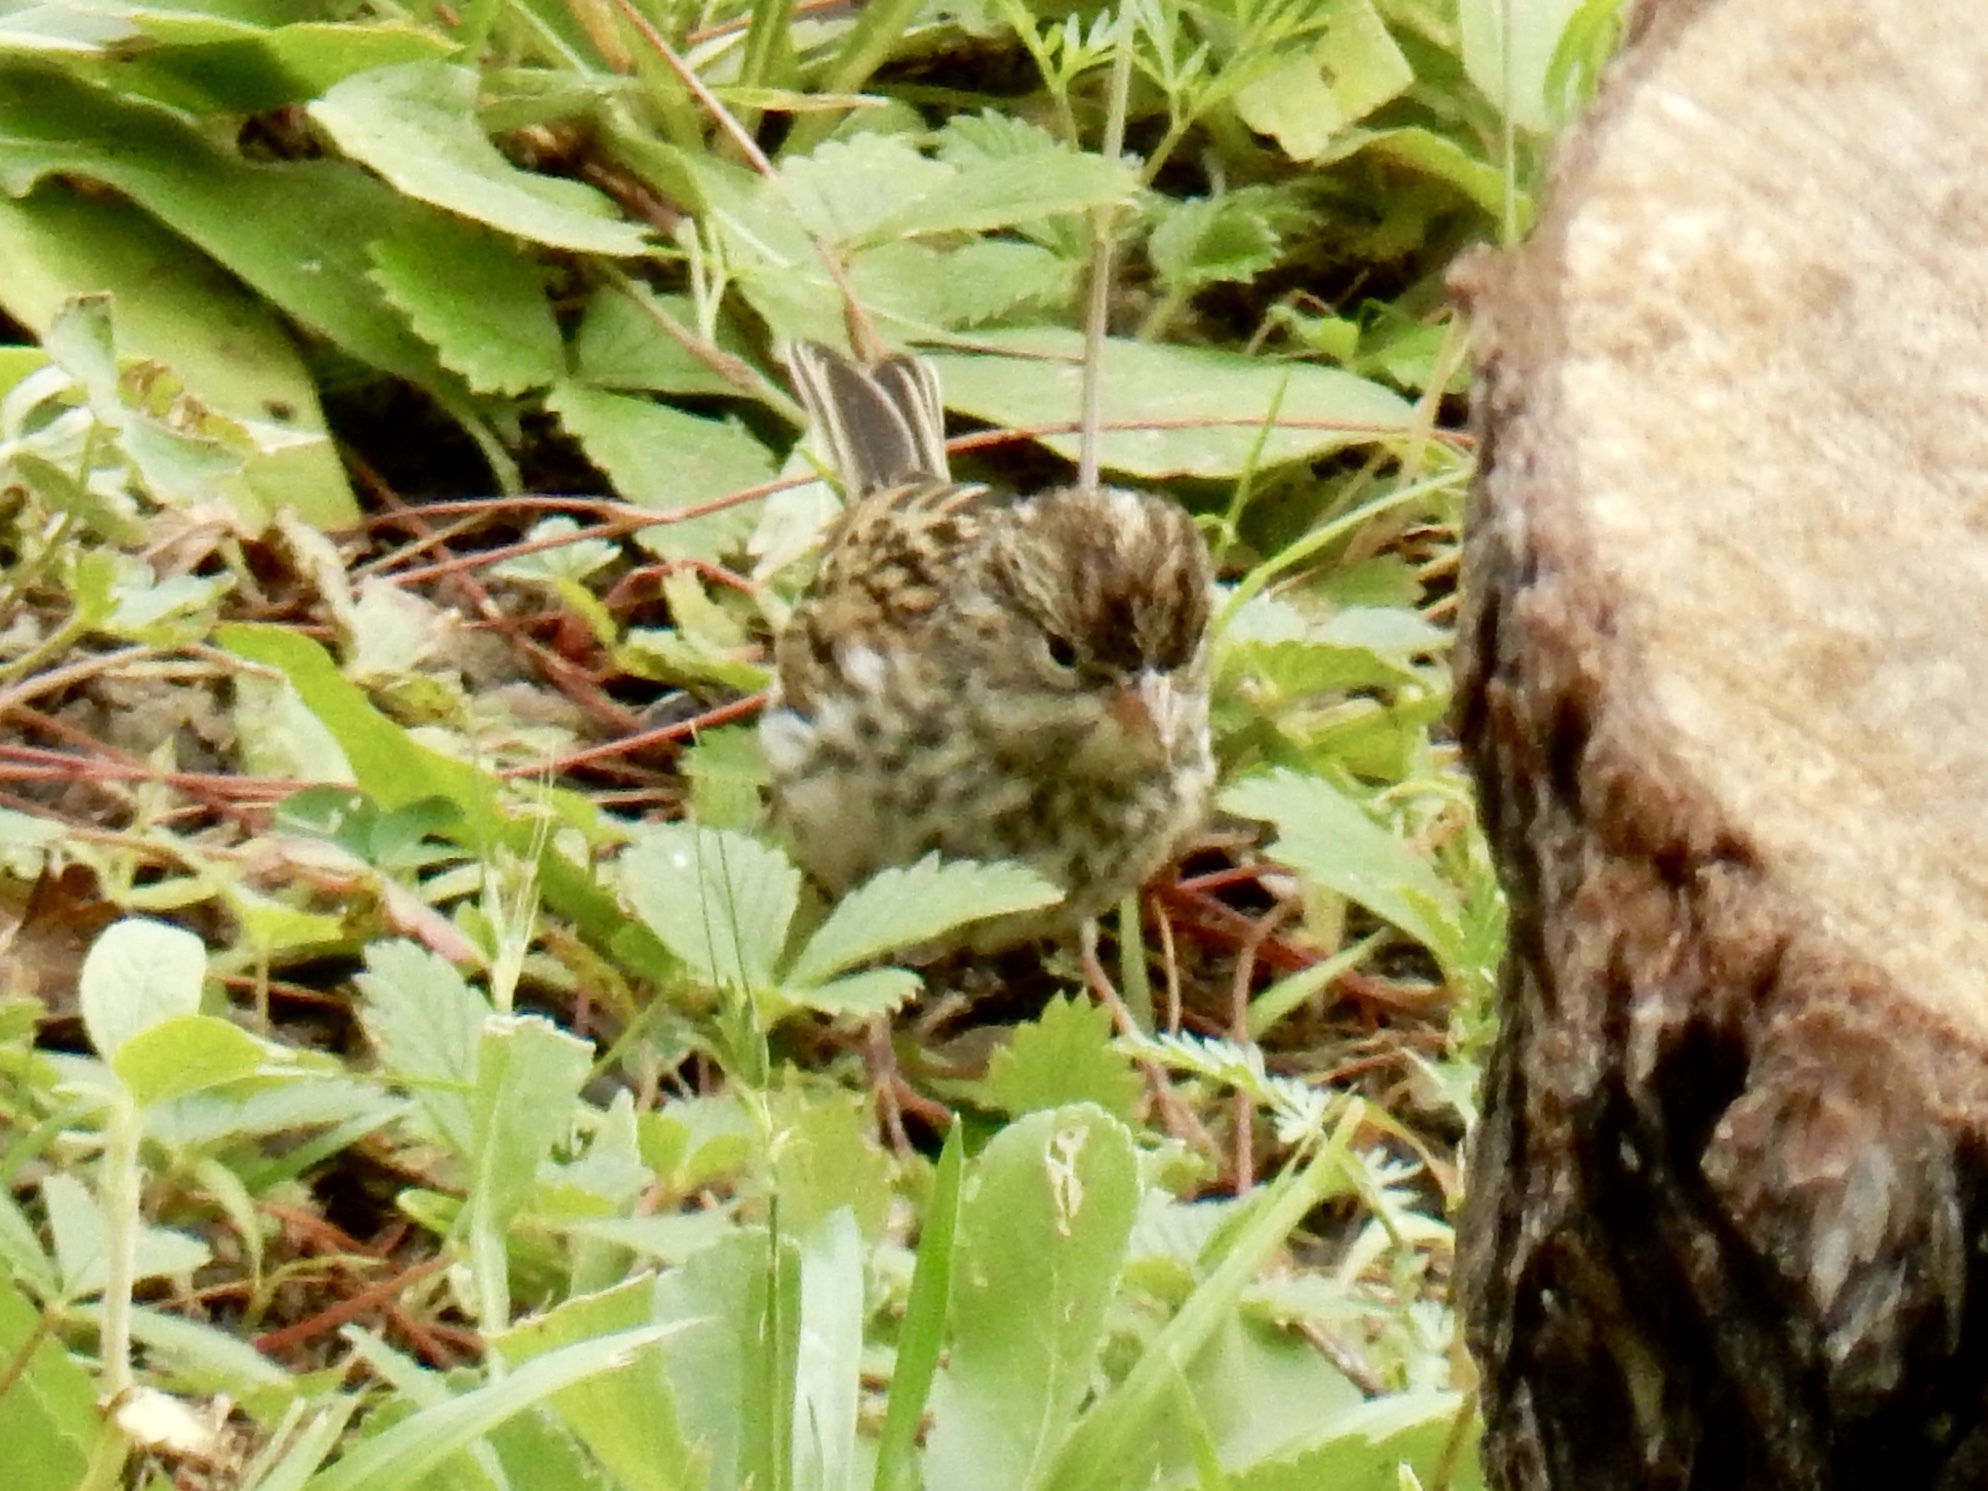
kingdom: Animalia
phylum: Chordata
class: Aves
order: Passeriformes
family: Passerellidae
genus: Spizella
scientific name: Spizella passerina
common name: Chipping sparrow
